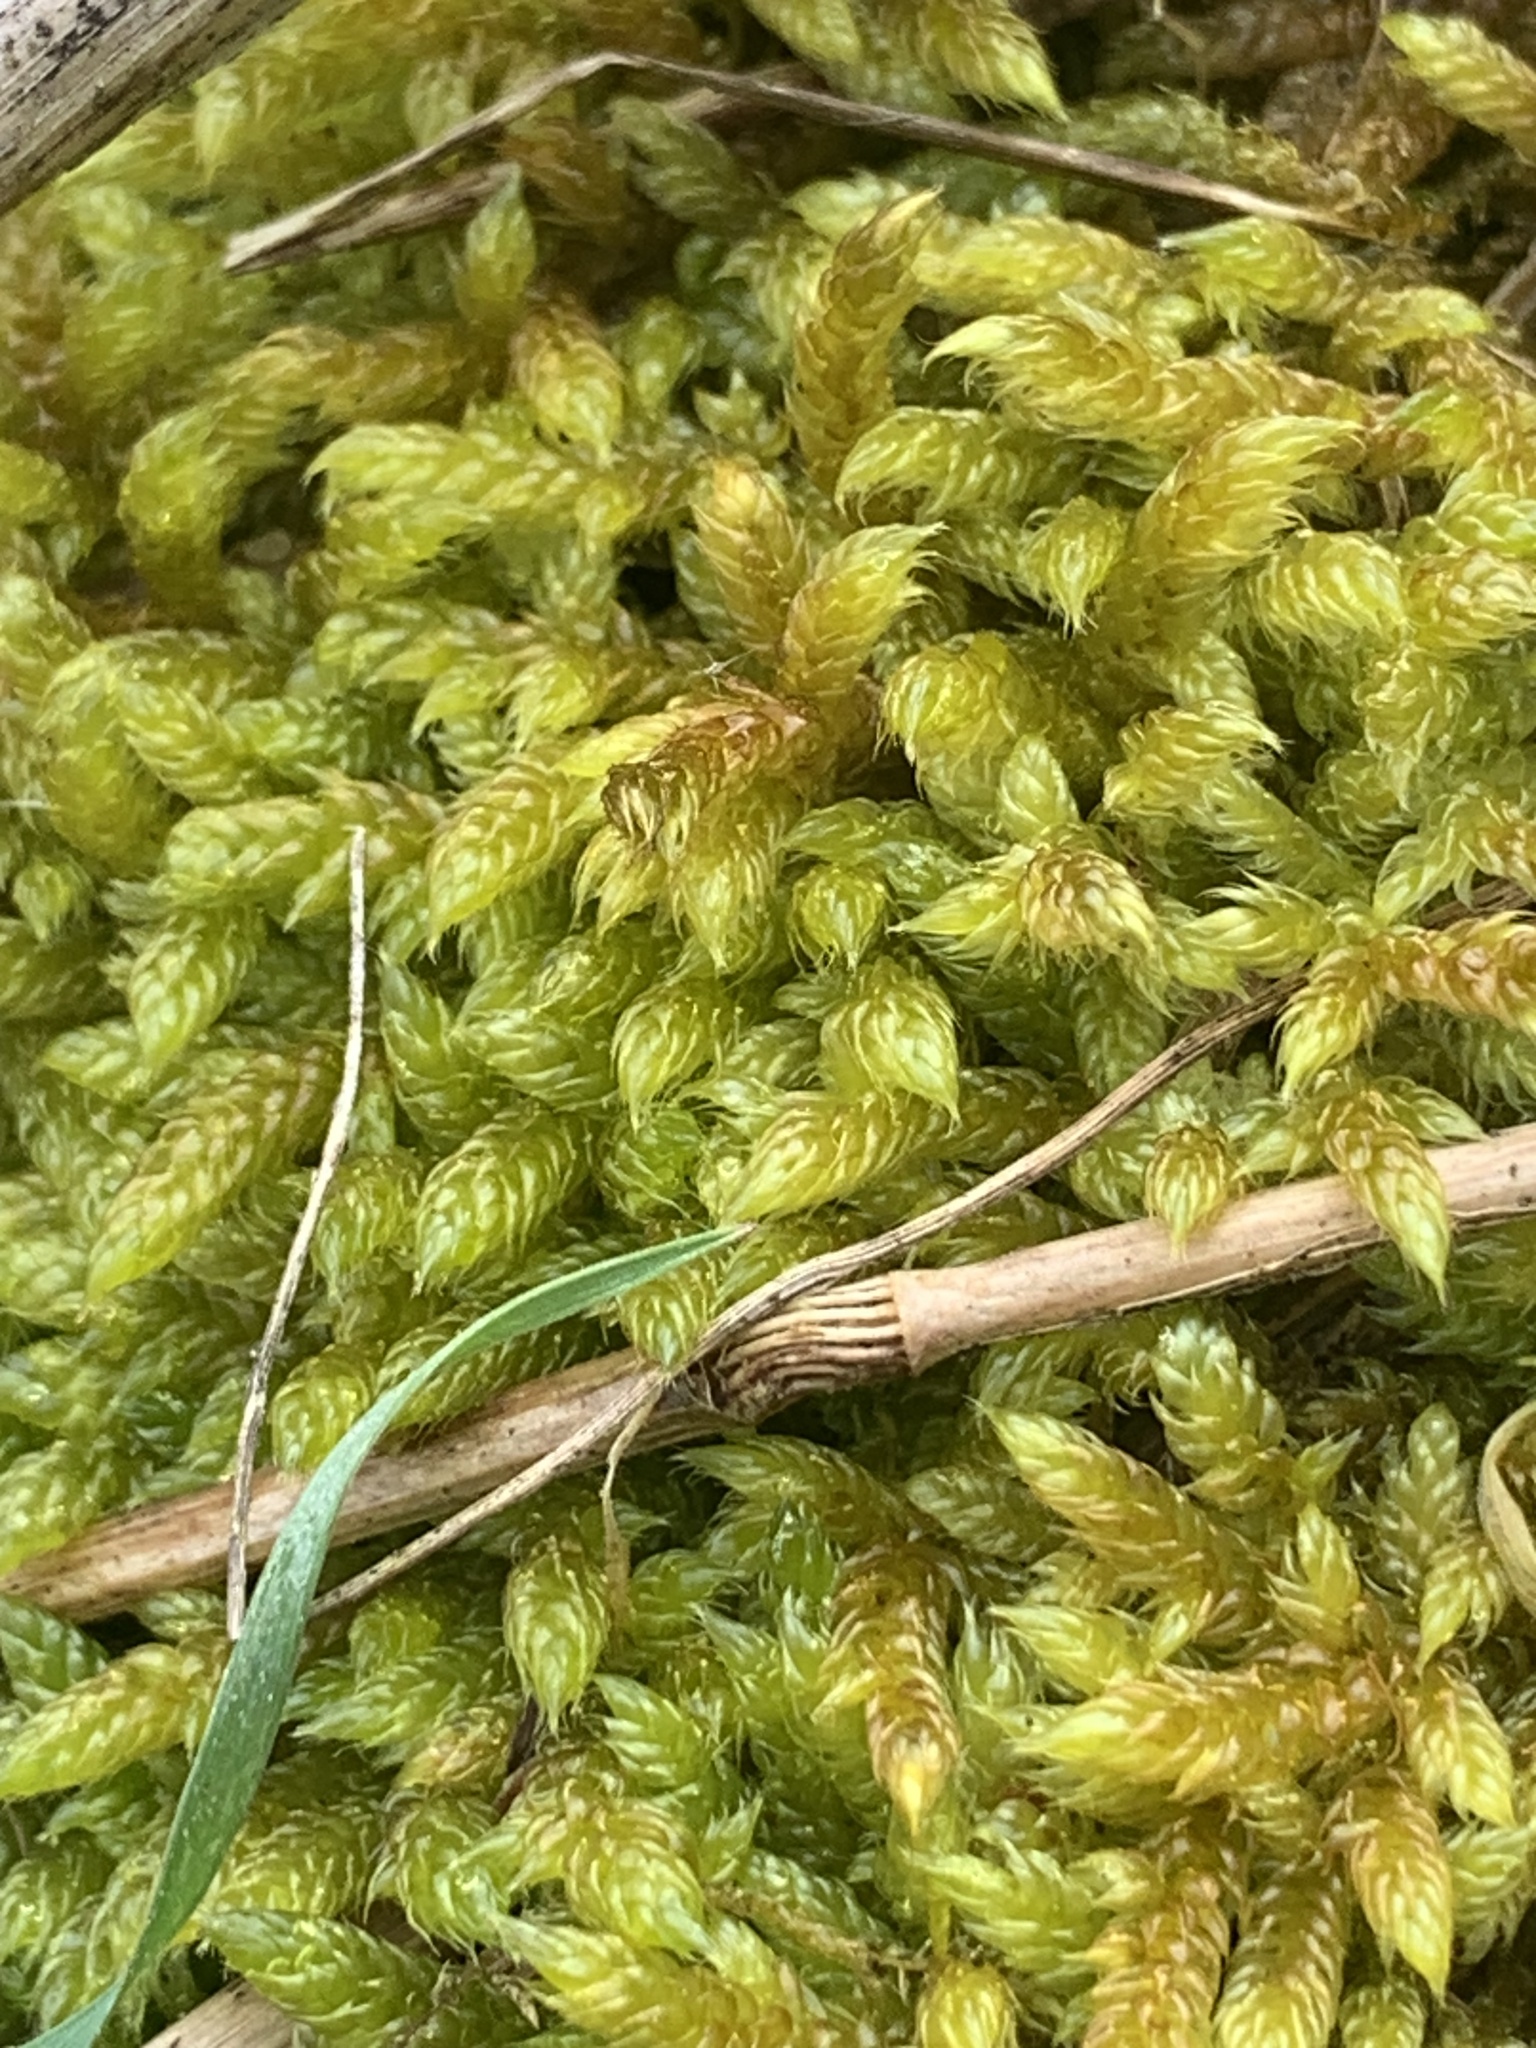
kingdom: Plantae
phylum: Bryophyta
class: Bryopsida
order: Hypnales
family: Hypnaceae
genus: Hypnum
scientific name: Hypnum cupressiforme
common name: Cypress-leaved plait-moss
